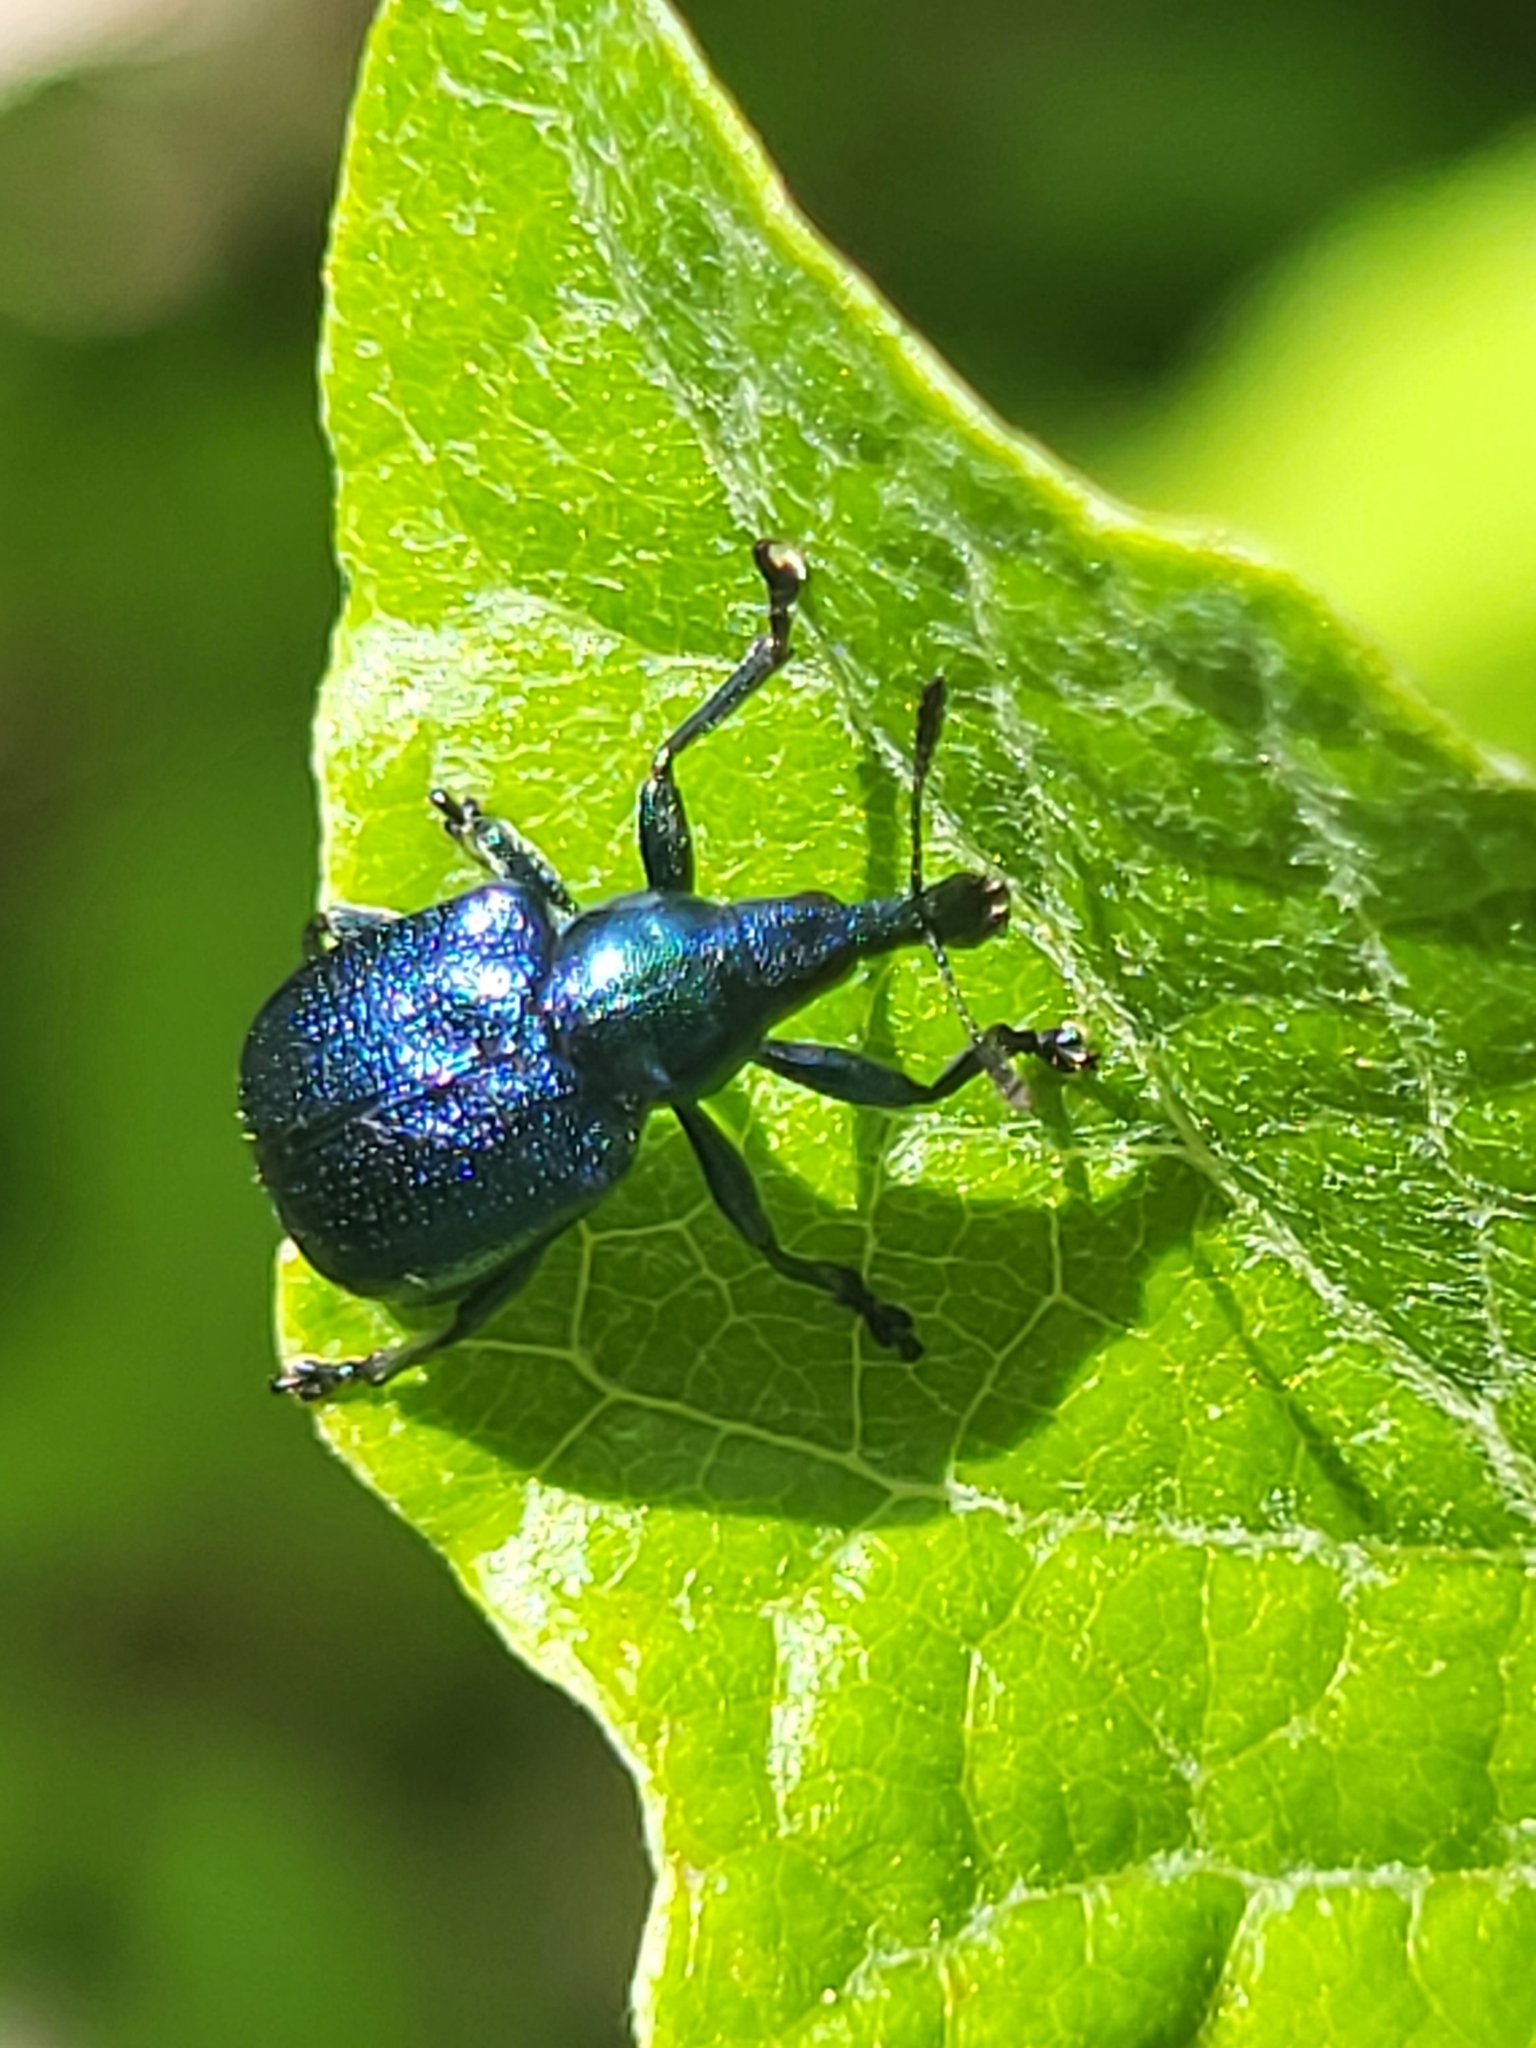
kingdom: Animalia
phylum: Arthropoda
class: Insecta
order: Coleoptera
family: Attelabidae
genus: Byctiscus
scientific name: Byctiscus betulae
